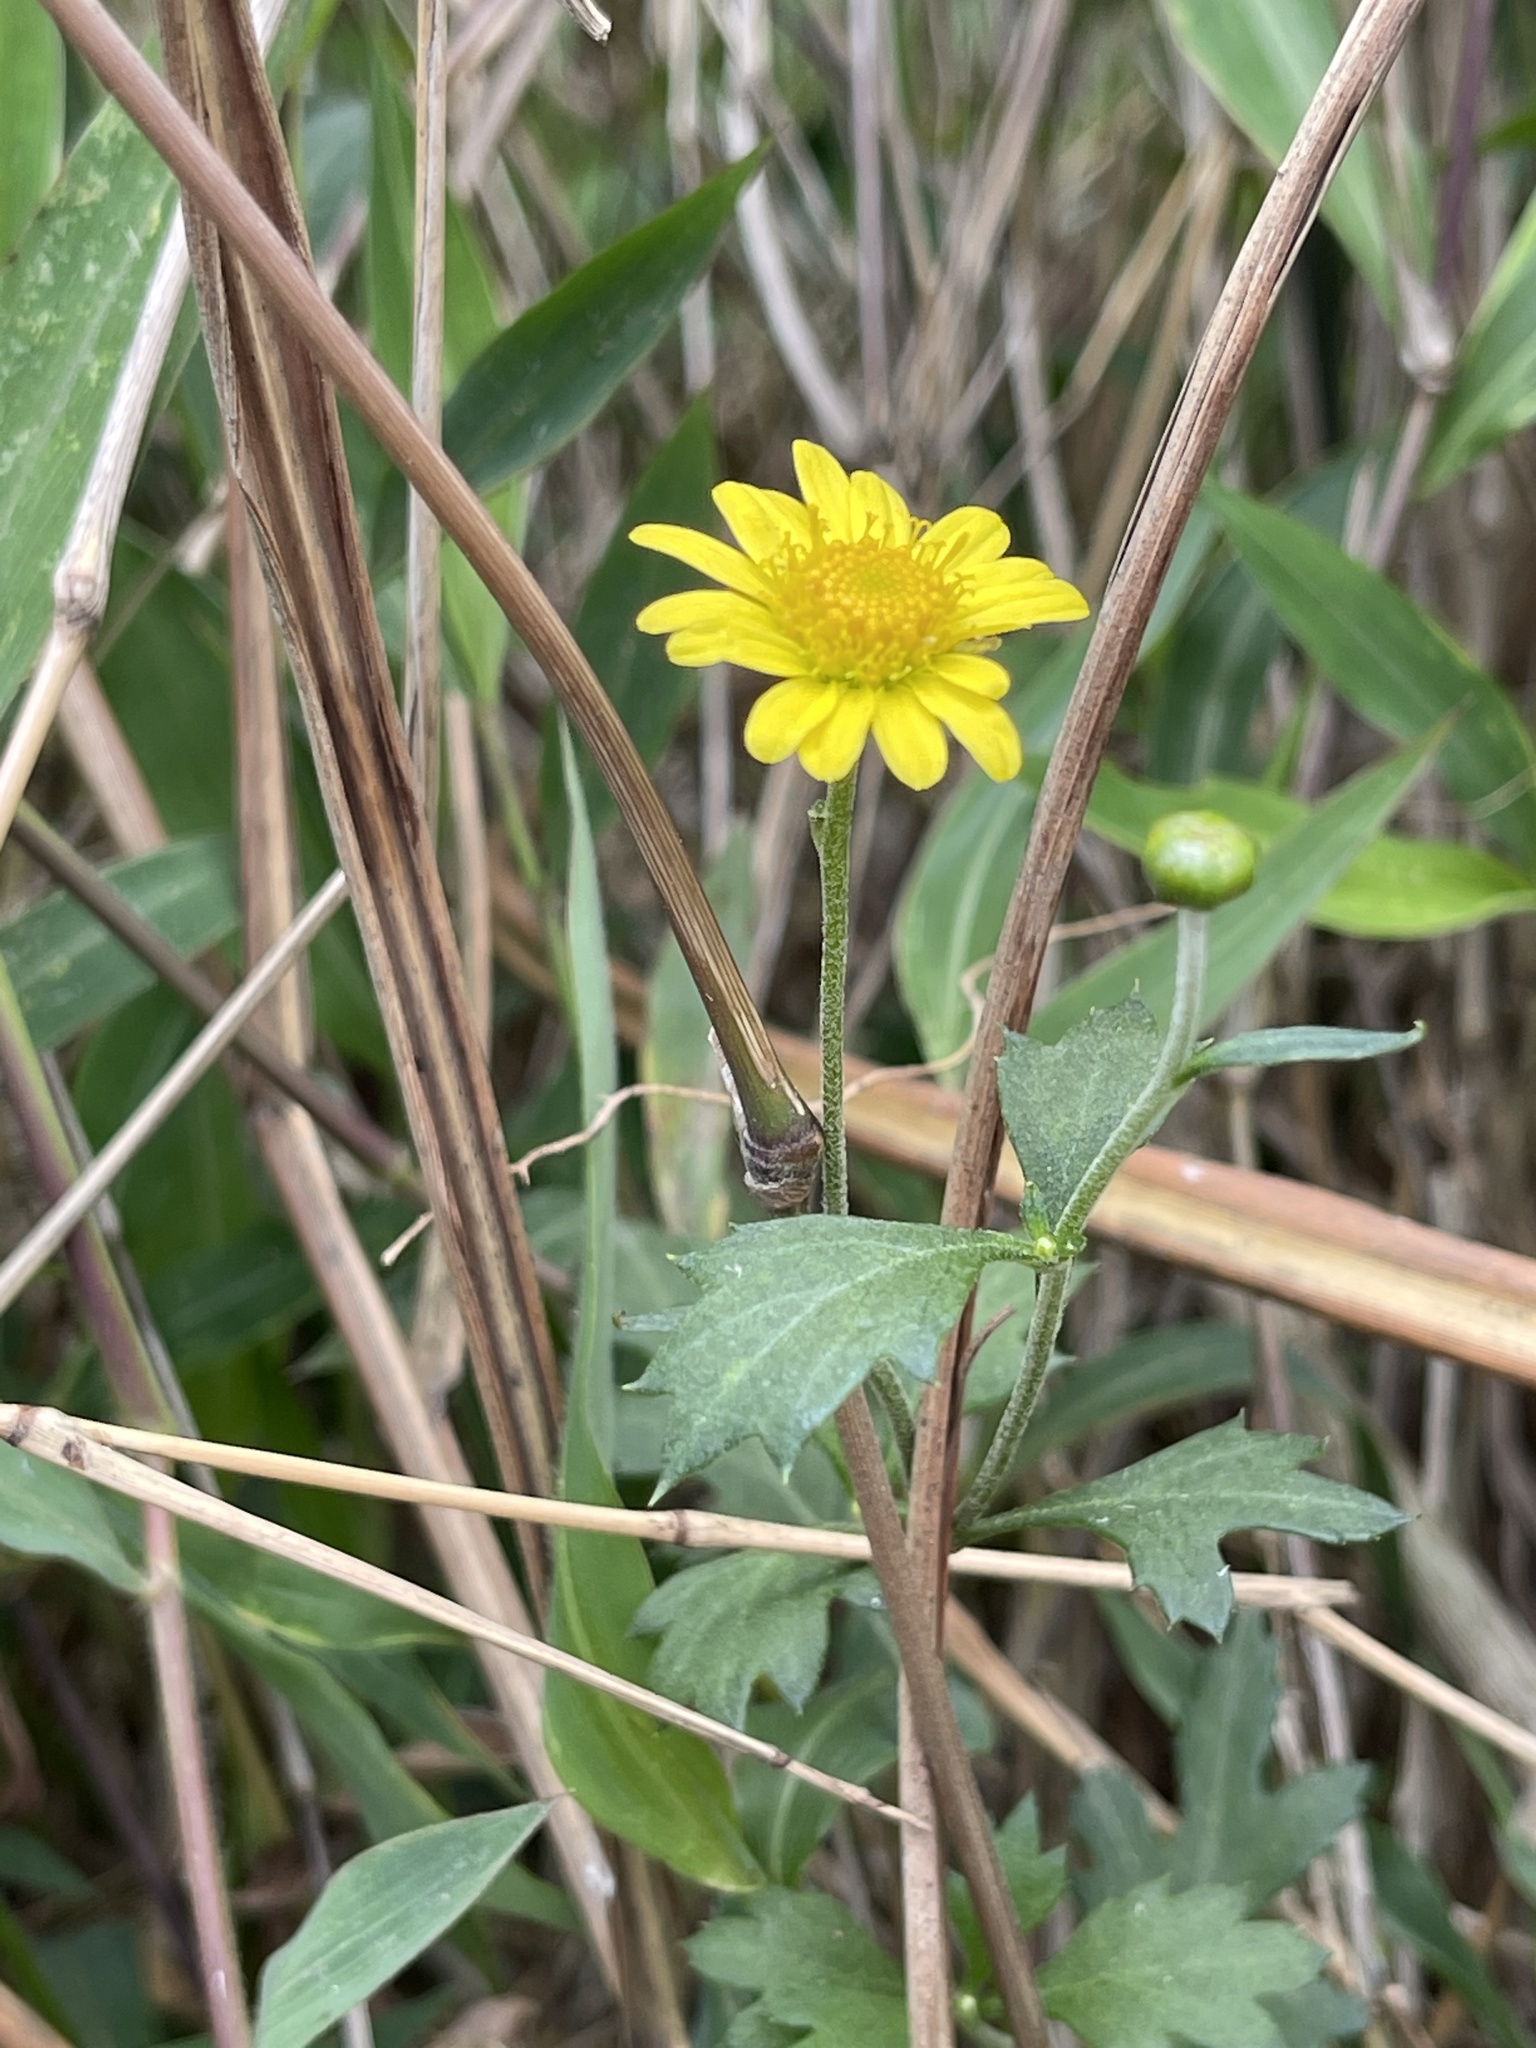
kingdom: Plantae
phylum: Tracheophyta
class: Magnoliopsida
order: Asterales
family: Asteraceae
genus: Chrysanthemum
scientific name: Chrysanthemum indicum
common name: Indian chrysanthemum
